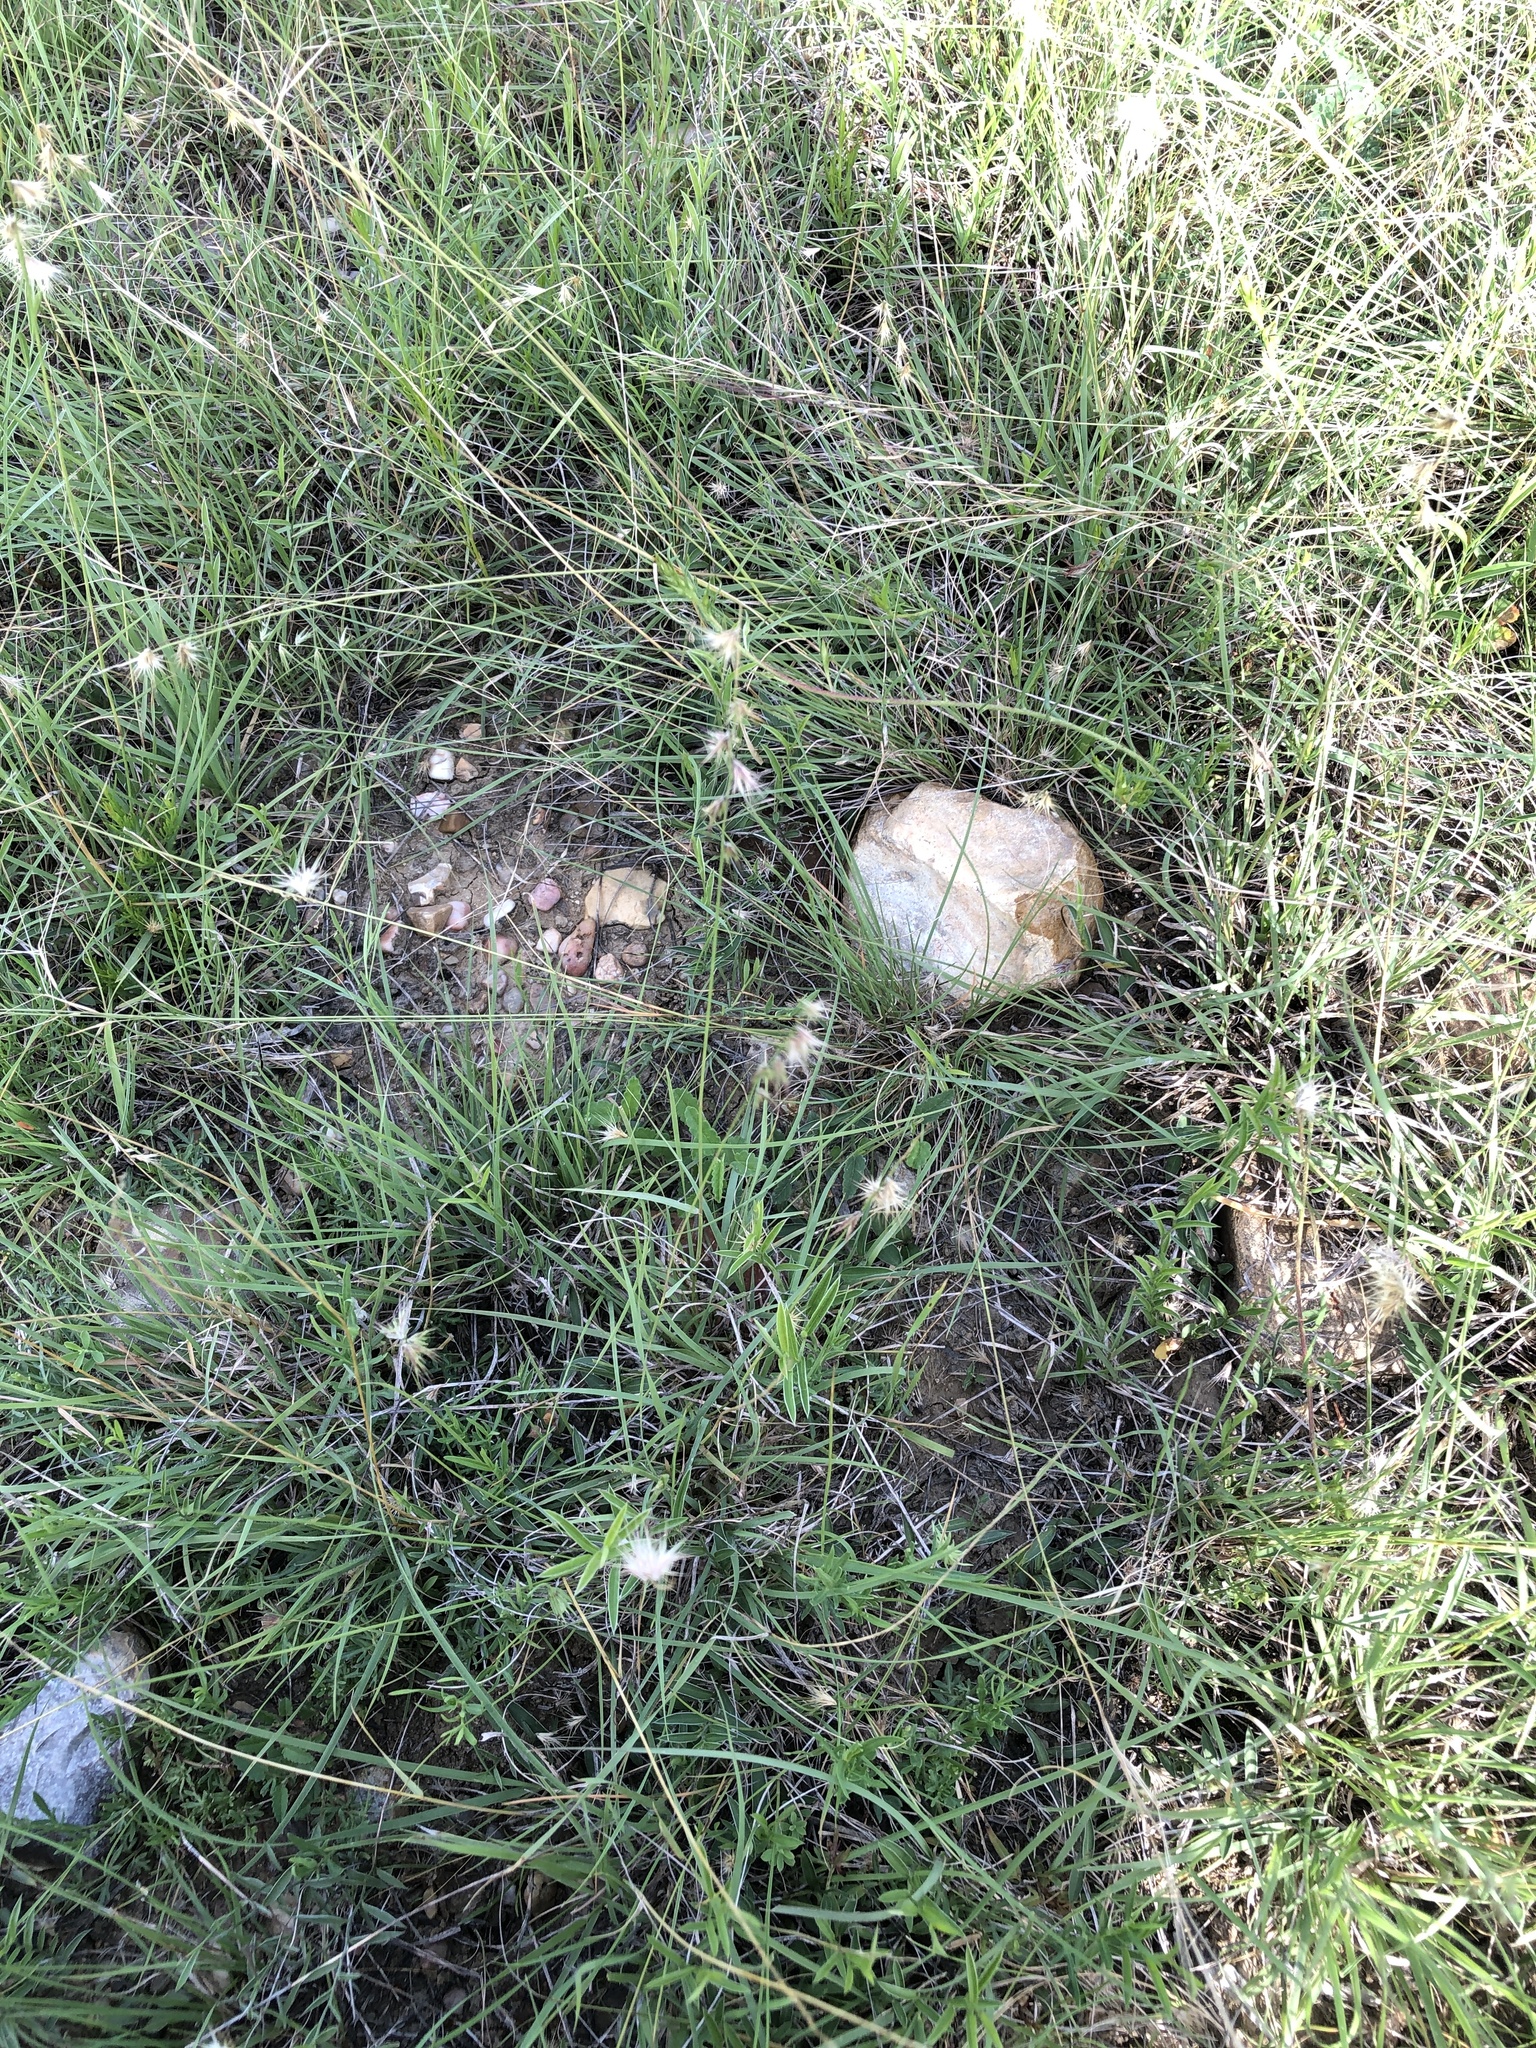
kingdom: Plantae
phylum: Tracheophyta
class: Liliopsida
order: Poales
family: Poaceae
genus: Bouteloua
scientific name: Bouteloua rigidiseta
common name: Texas grama
